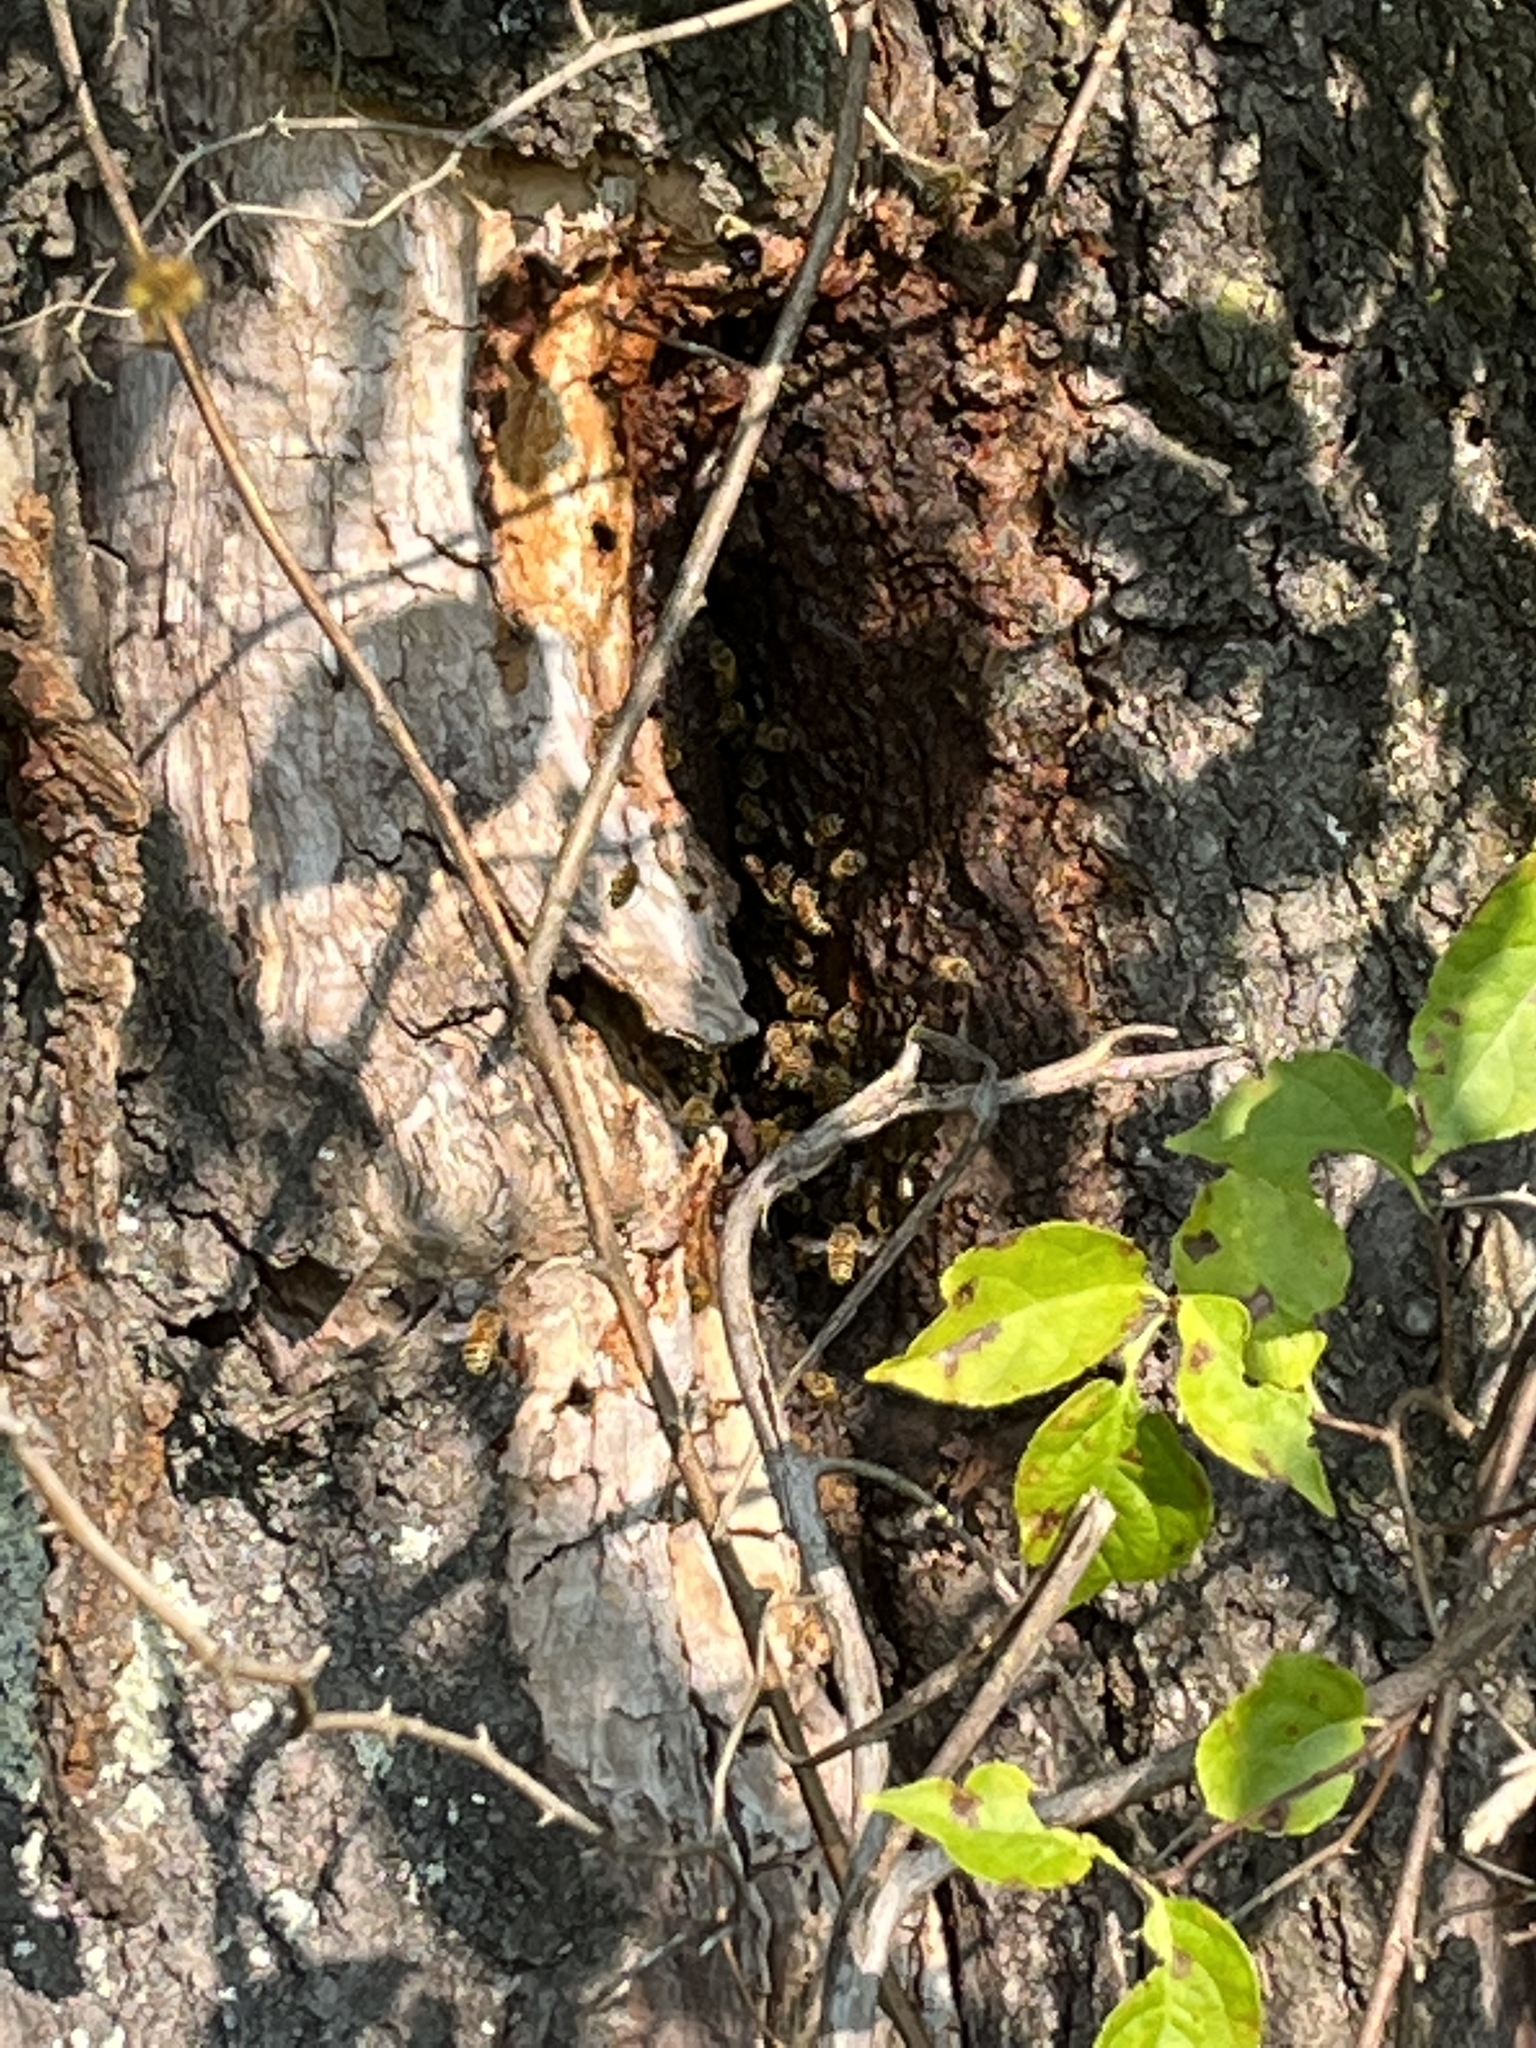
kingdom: Animalia
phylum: Arthropoda
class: Insecta
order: Hymenoptera
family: Apidae
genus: Apis
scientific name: Apis mellifera
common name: Honey bee
